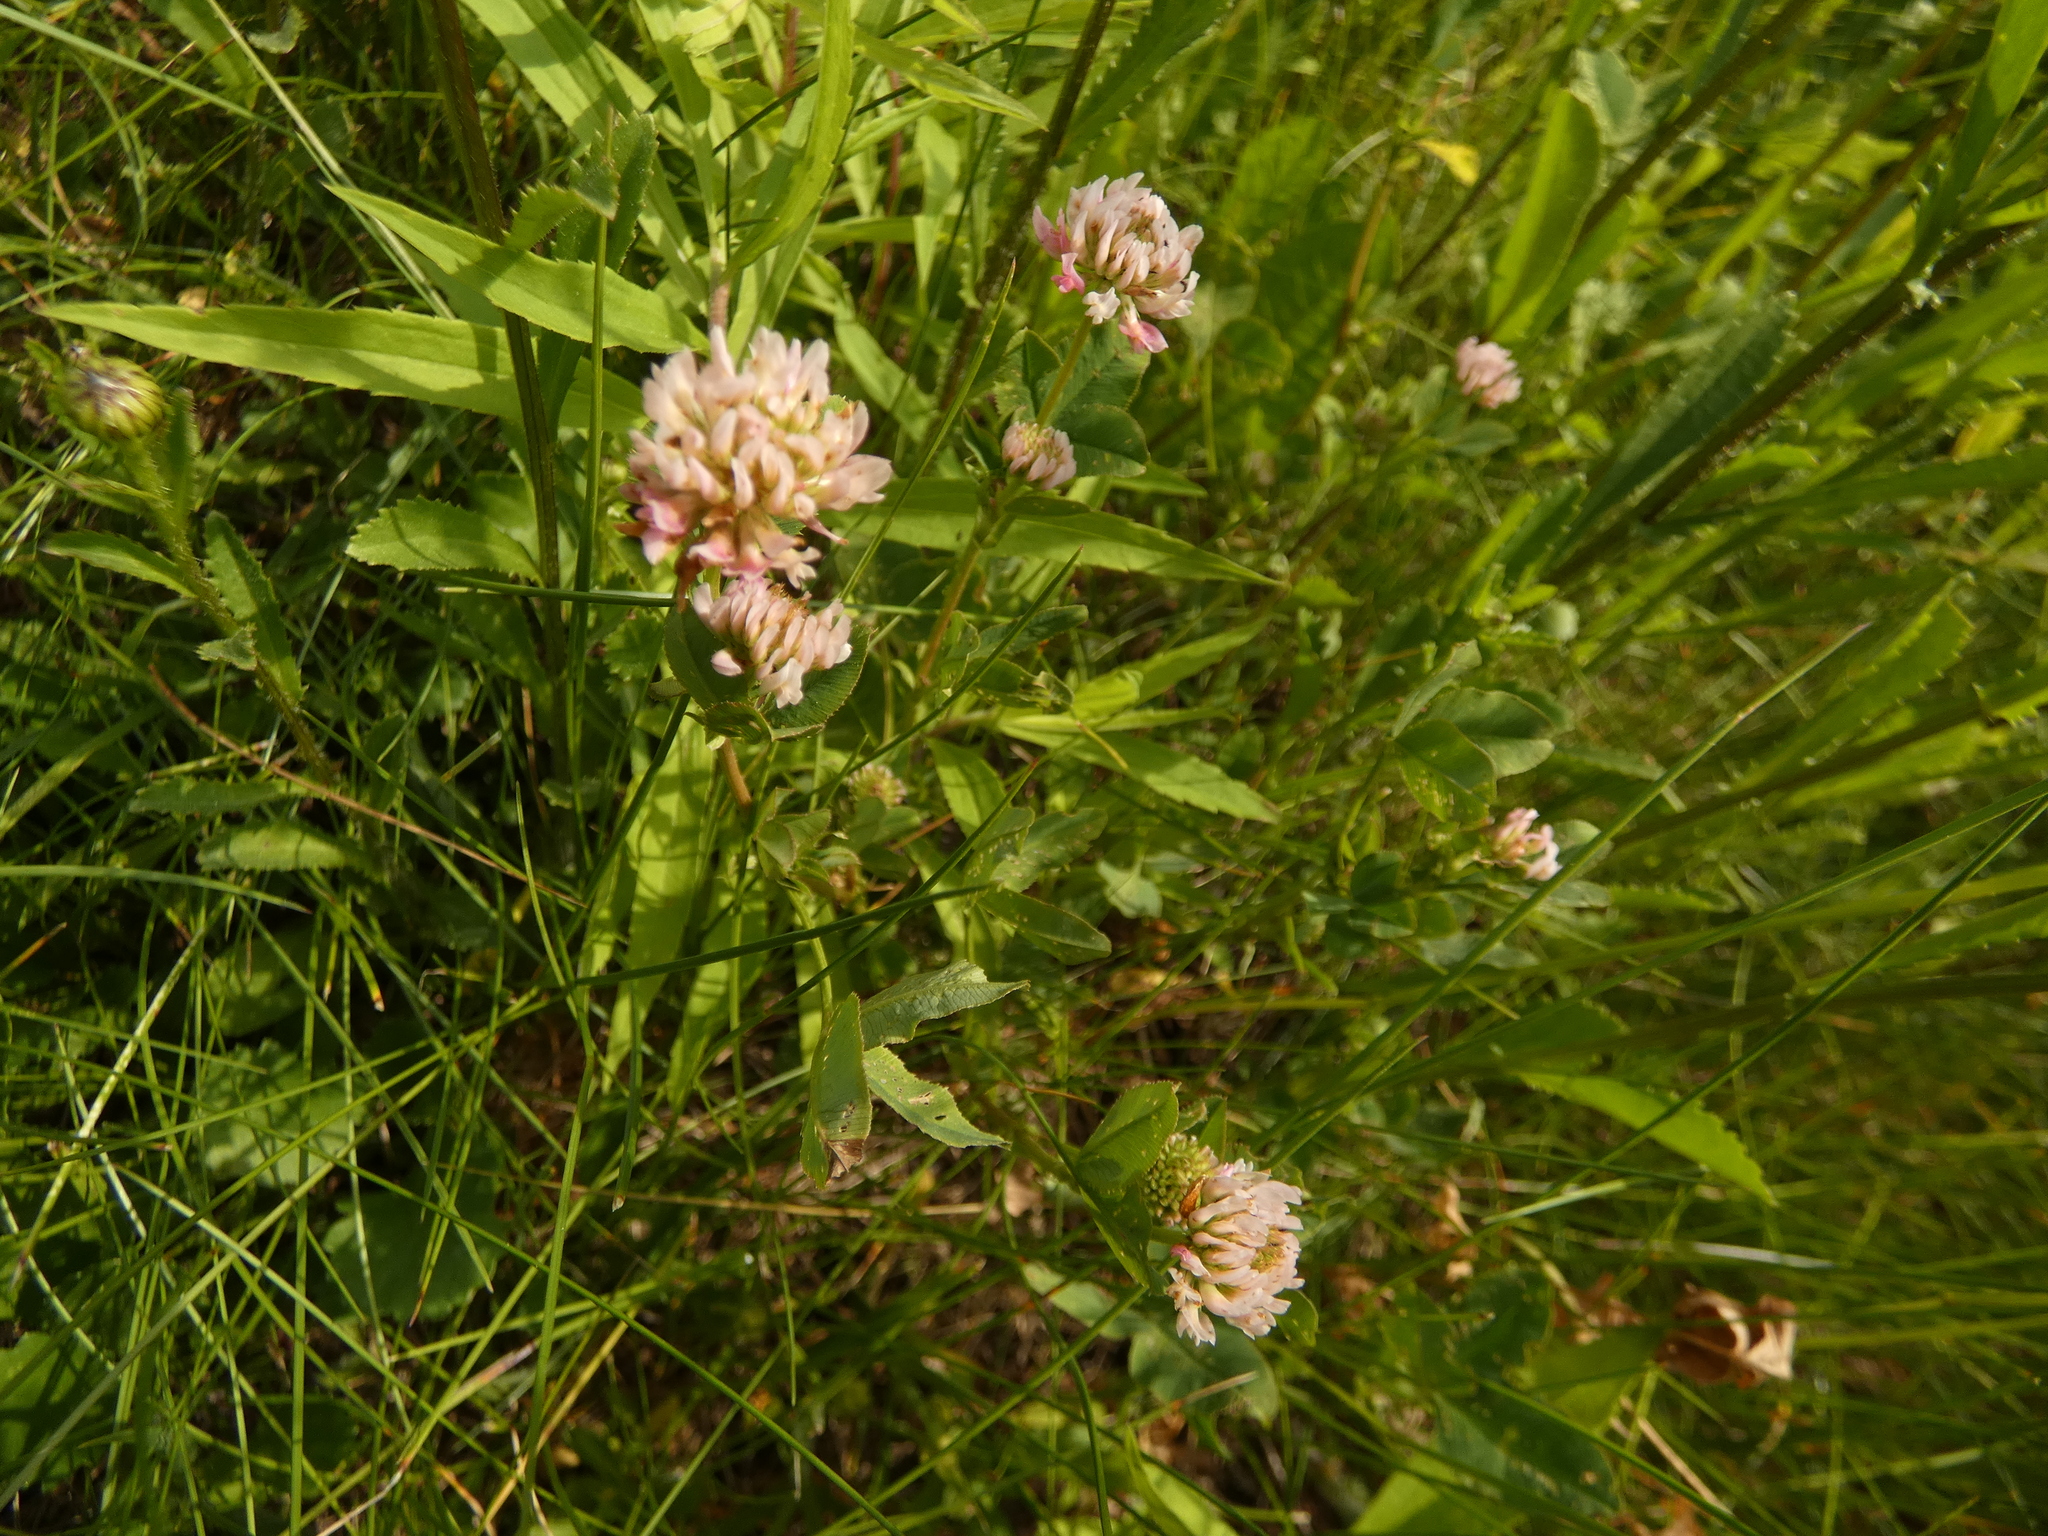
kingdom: Plantae
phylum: Tracheophyta
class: Magnoliopsida
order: Fabales
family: Fabaceae
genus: Trifolium
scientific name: Trifolium hybridum
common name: Alsike clover
